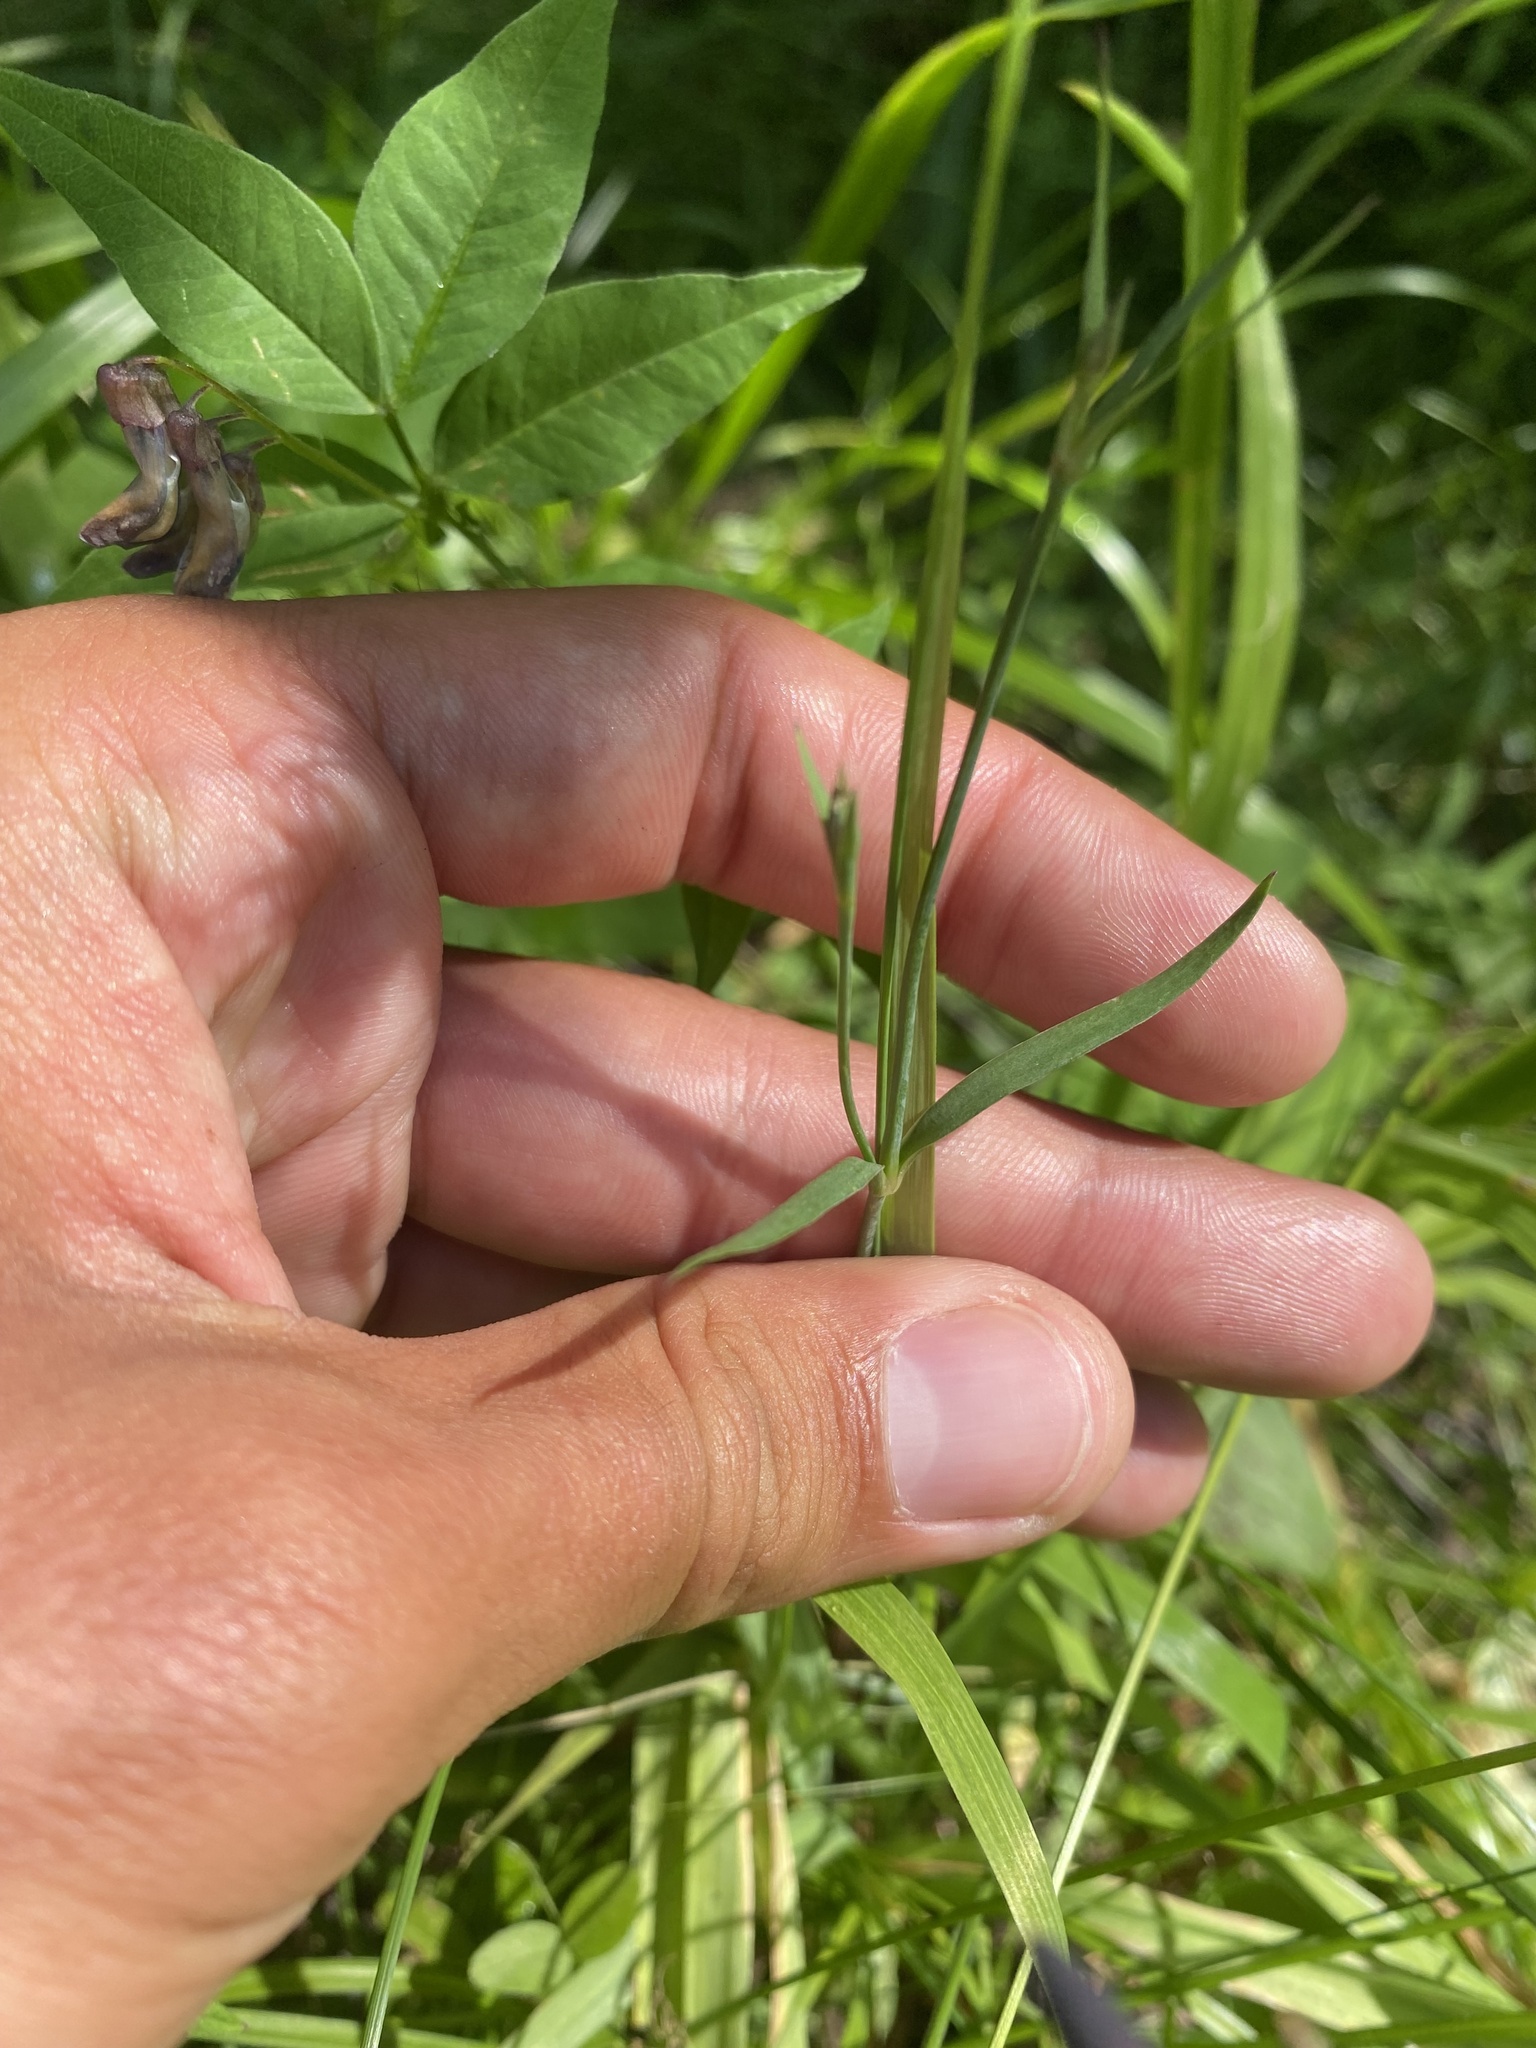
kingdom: Plantae
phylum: Tracheophyta
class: Magnoliopsida
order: Caryophyllales
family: Caryophyllaceae
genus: Dianthus
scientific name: Dianthus superbus
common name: Fringed pink
